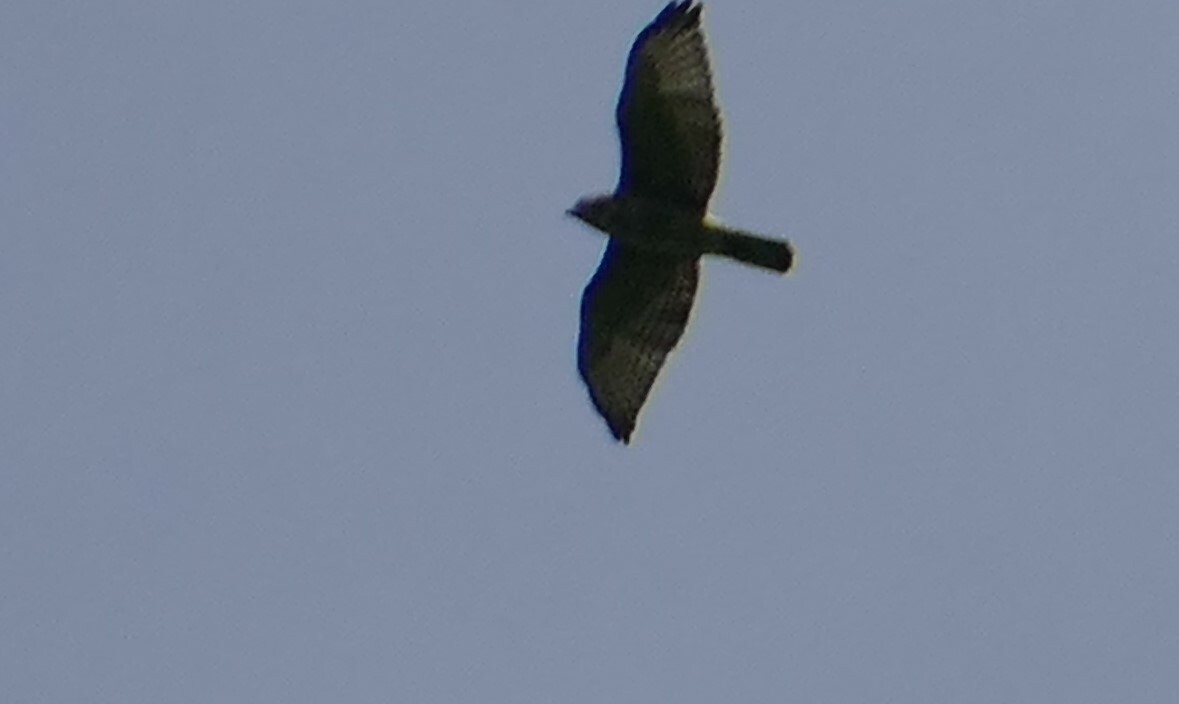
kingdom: Animalia
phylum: Chordata
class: Aves
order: Accipitriformes
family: Accipitridae
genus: Buteo
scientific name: Buteo platypterus
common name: Broad-winged hawk
